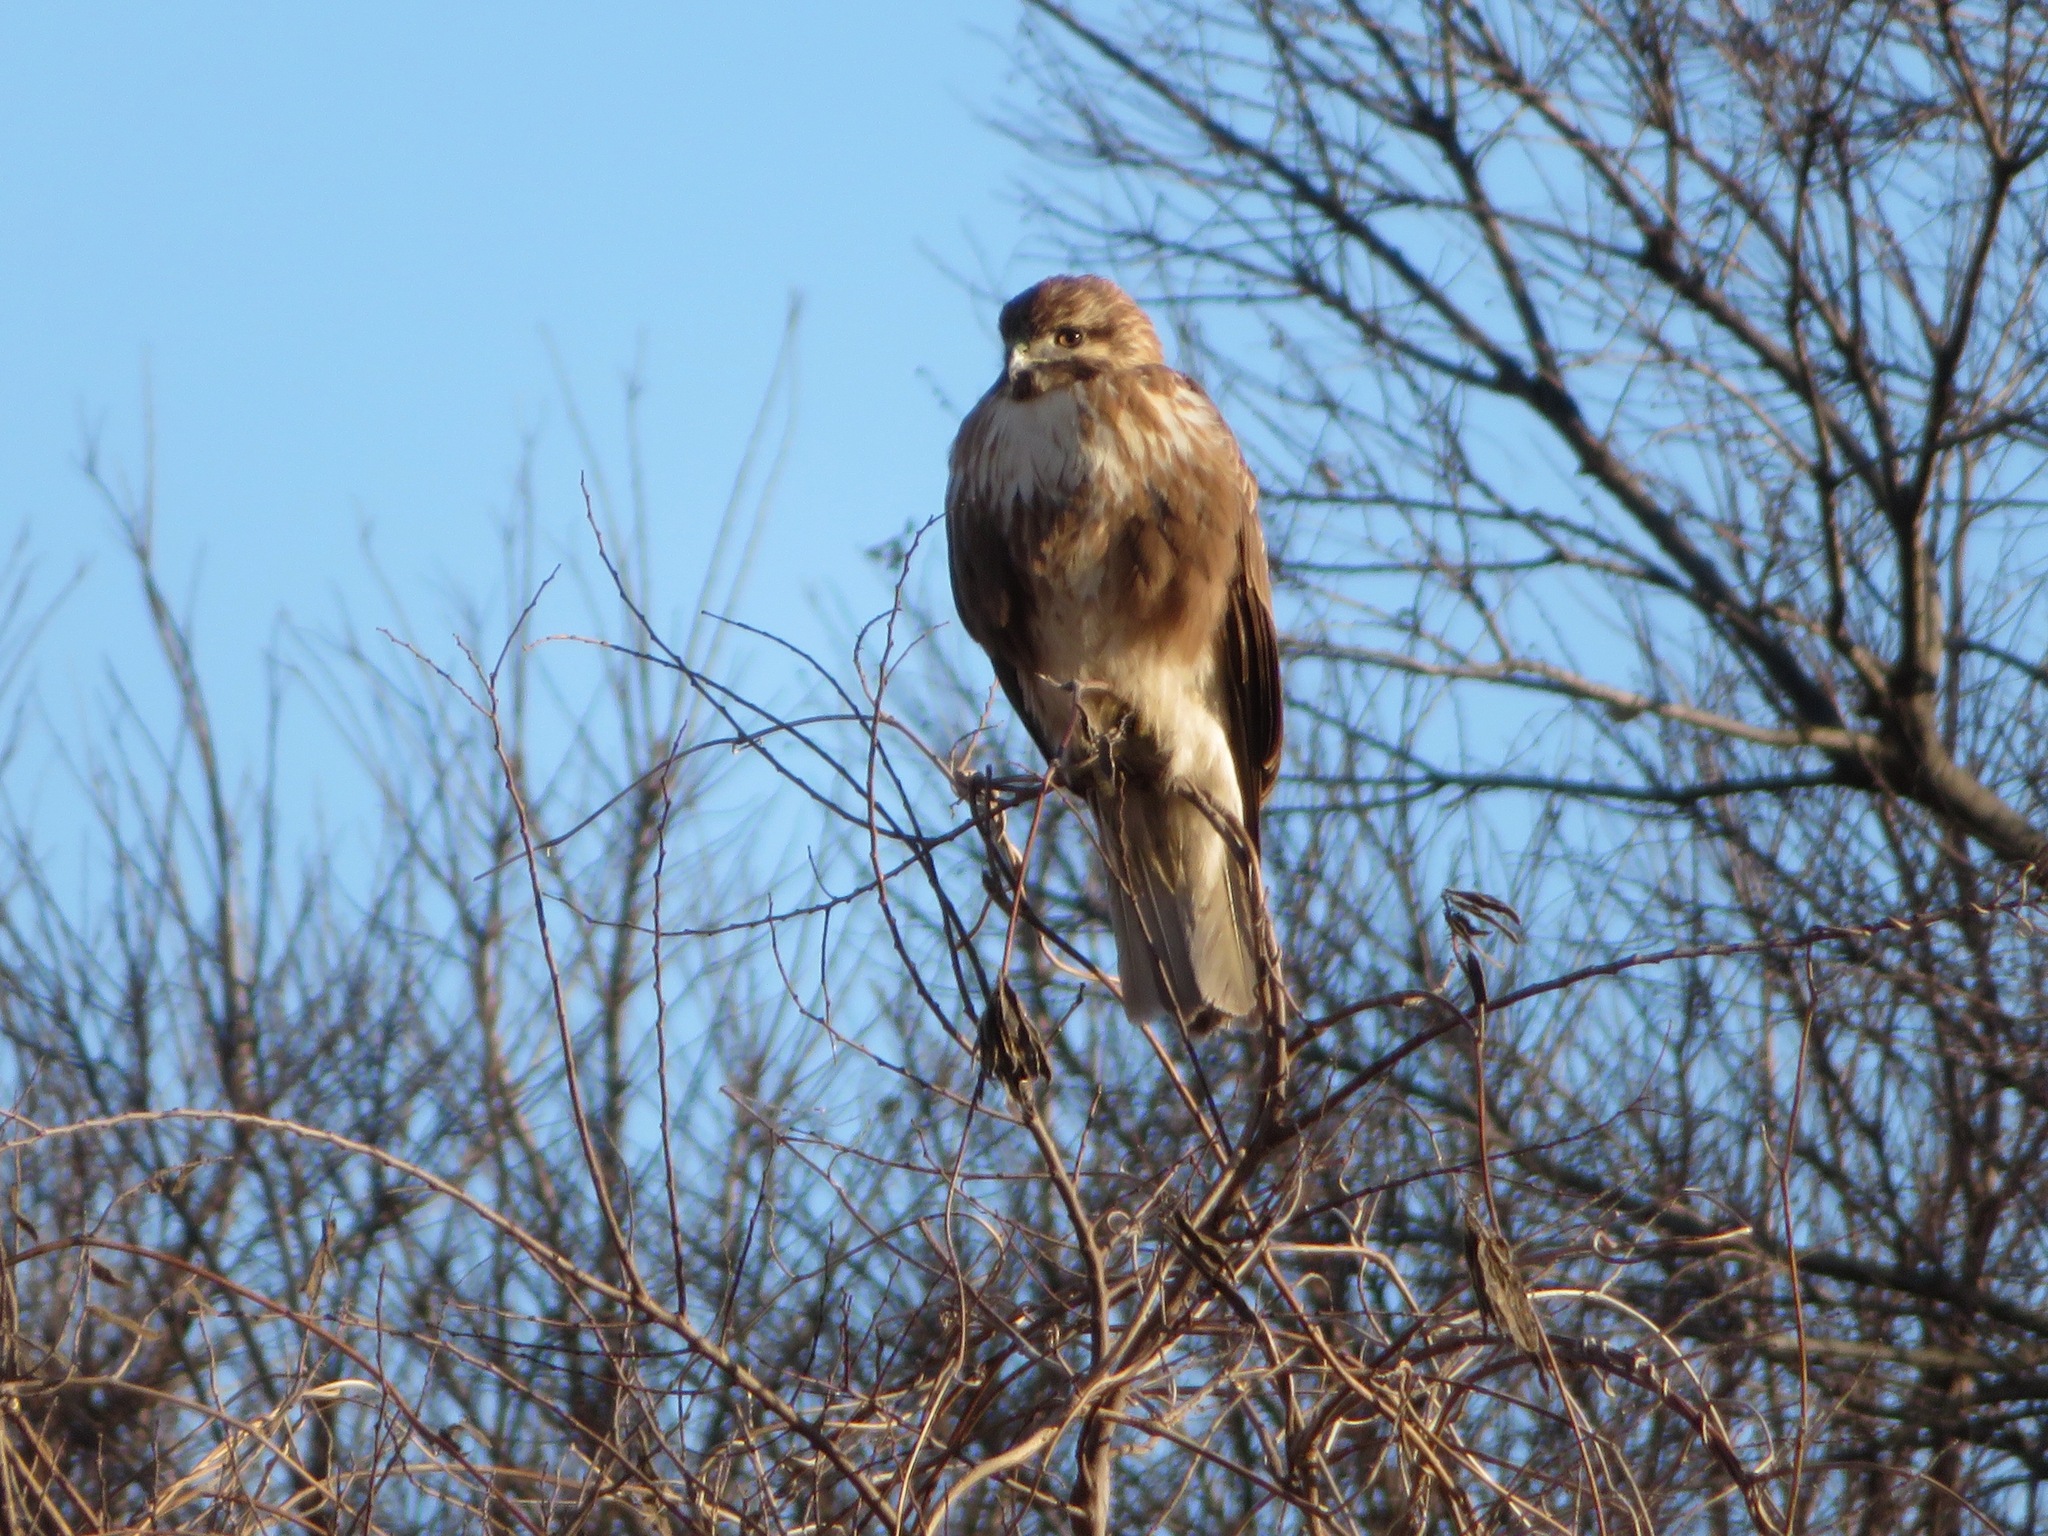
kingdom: Animalia
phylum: Chordata
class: Aves
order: Accipitriformes
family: Accipitridae
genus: Buteo
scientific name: Buteo japonicus
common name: Eastern buzzard
